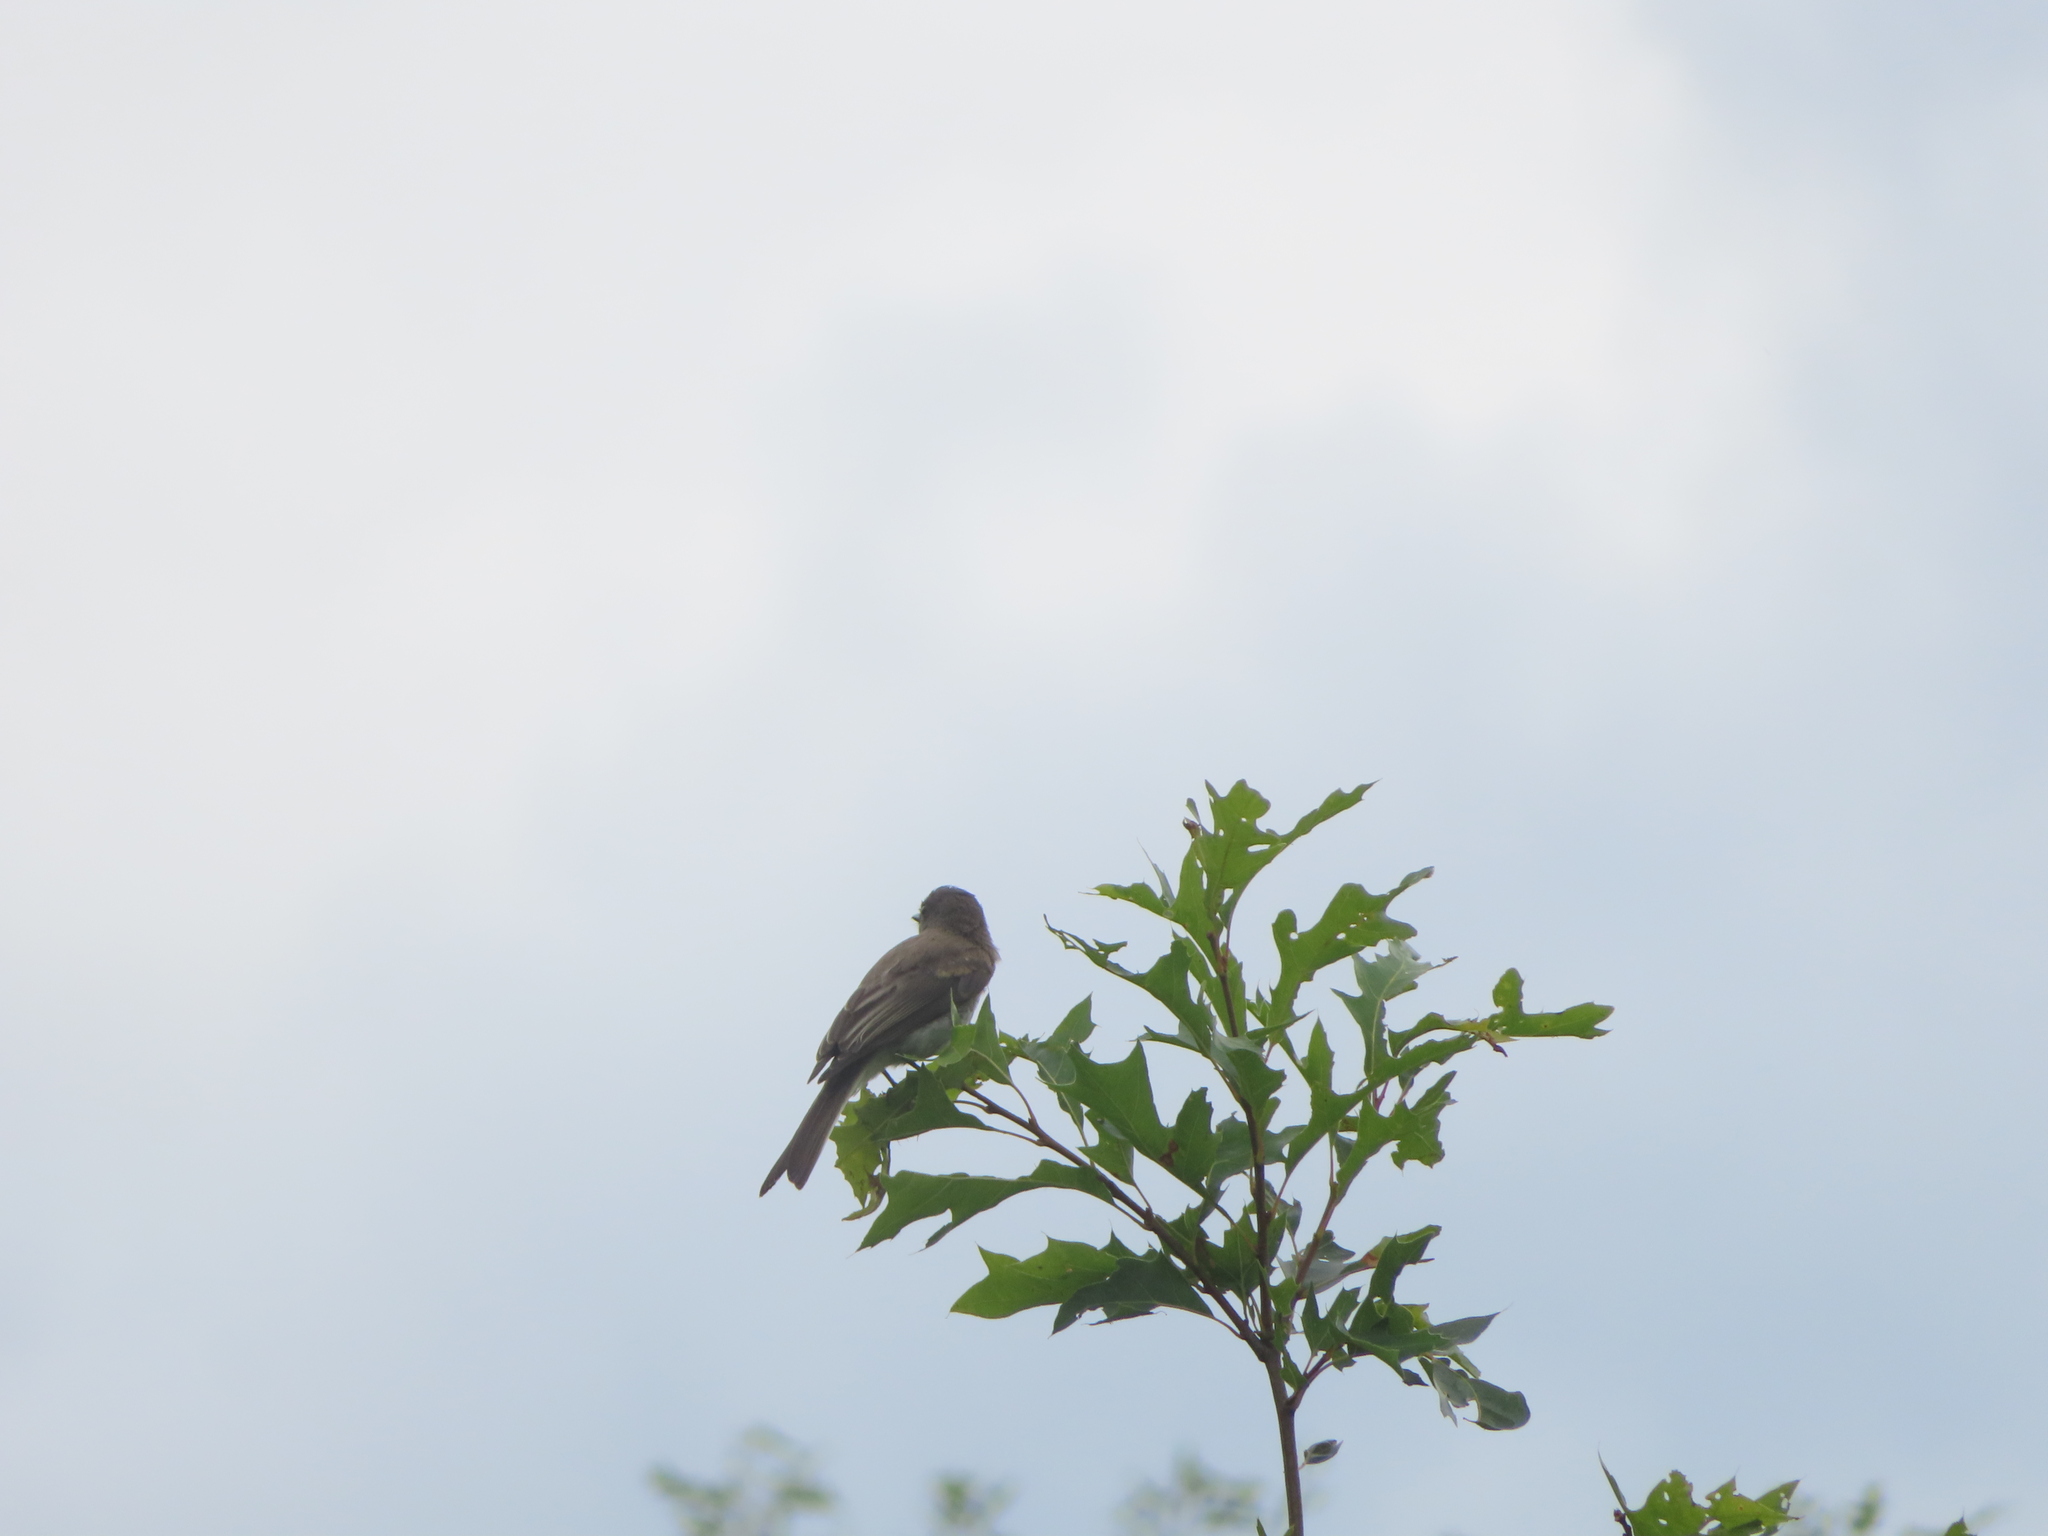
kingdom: Animalia
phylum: Chordata
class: Aves
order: Passeriformes
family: Tyrannidae
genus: Sayornis
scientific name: Sayornis phoebe
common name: Eastern phoebe
